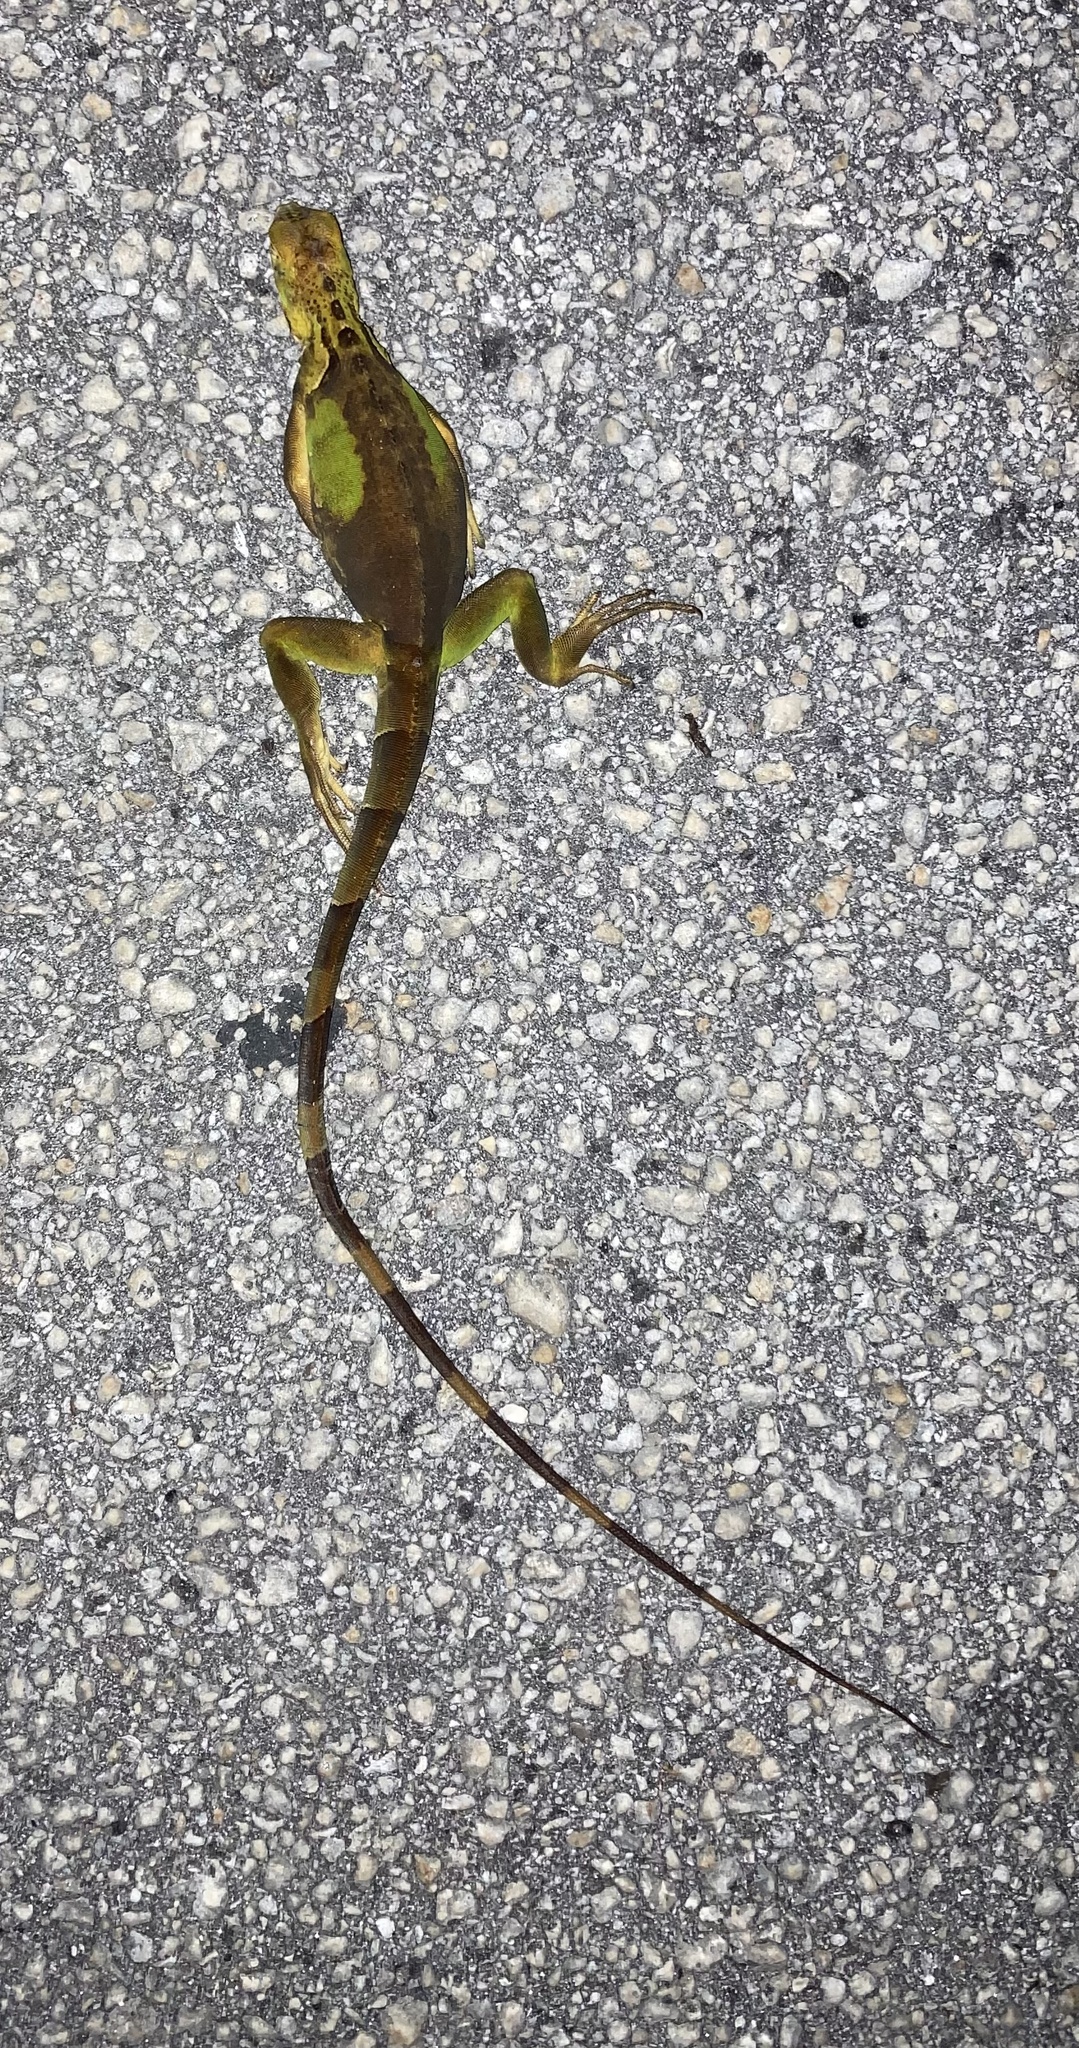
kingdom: Animalia
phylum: Chordata
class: Squamata
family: Iguanidae
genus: Iguana
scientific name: Iguana iguana
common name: Green iguana
